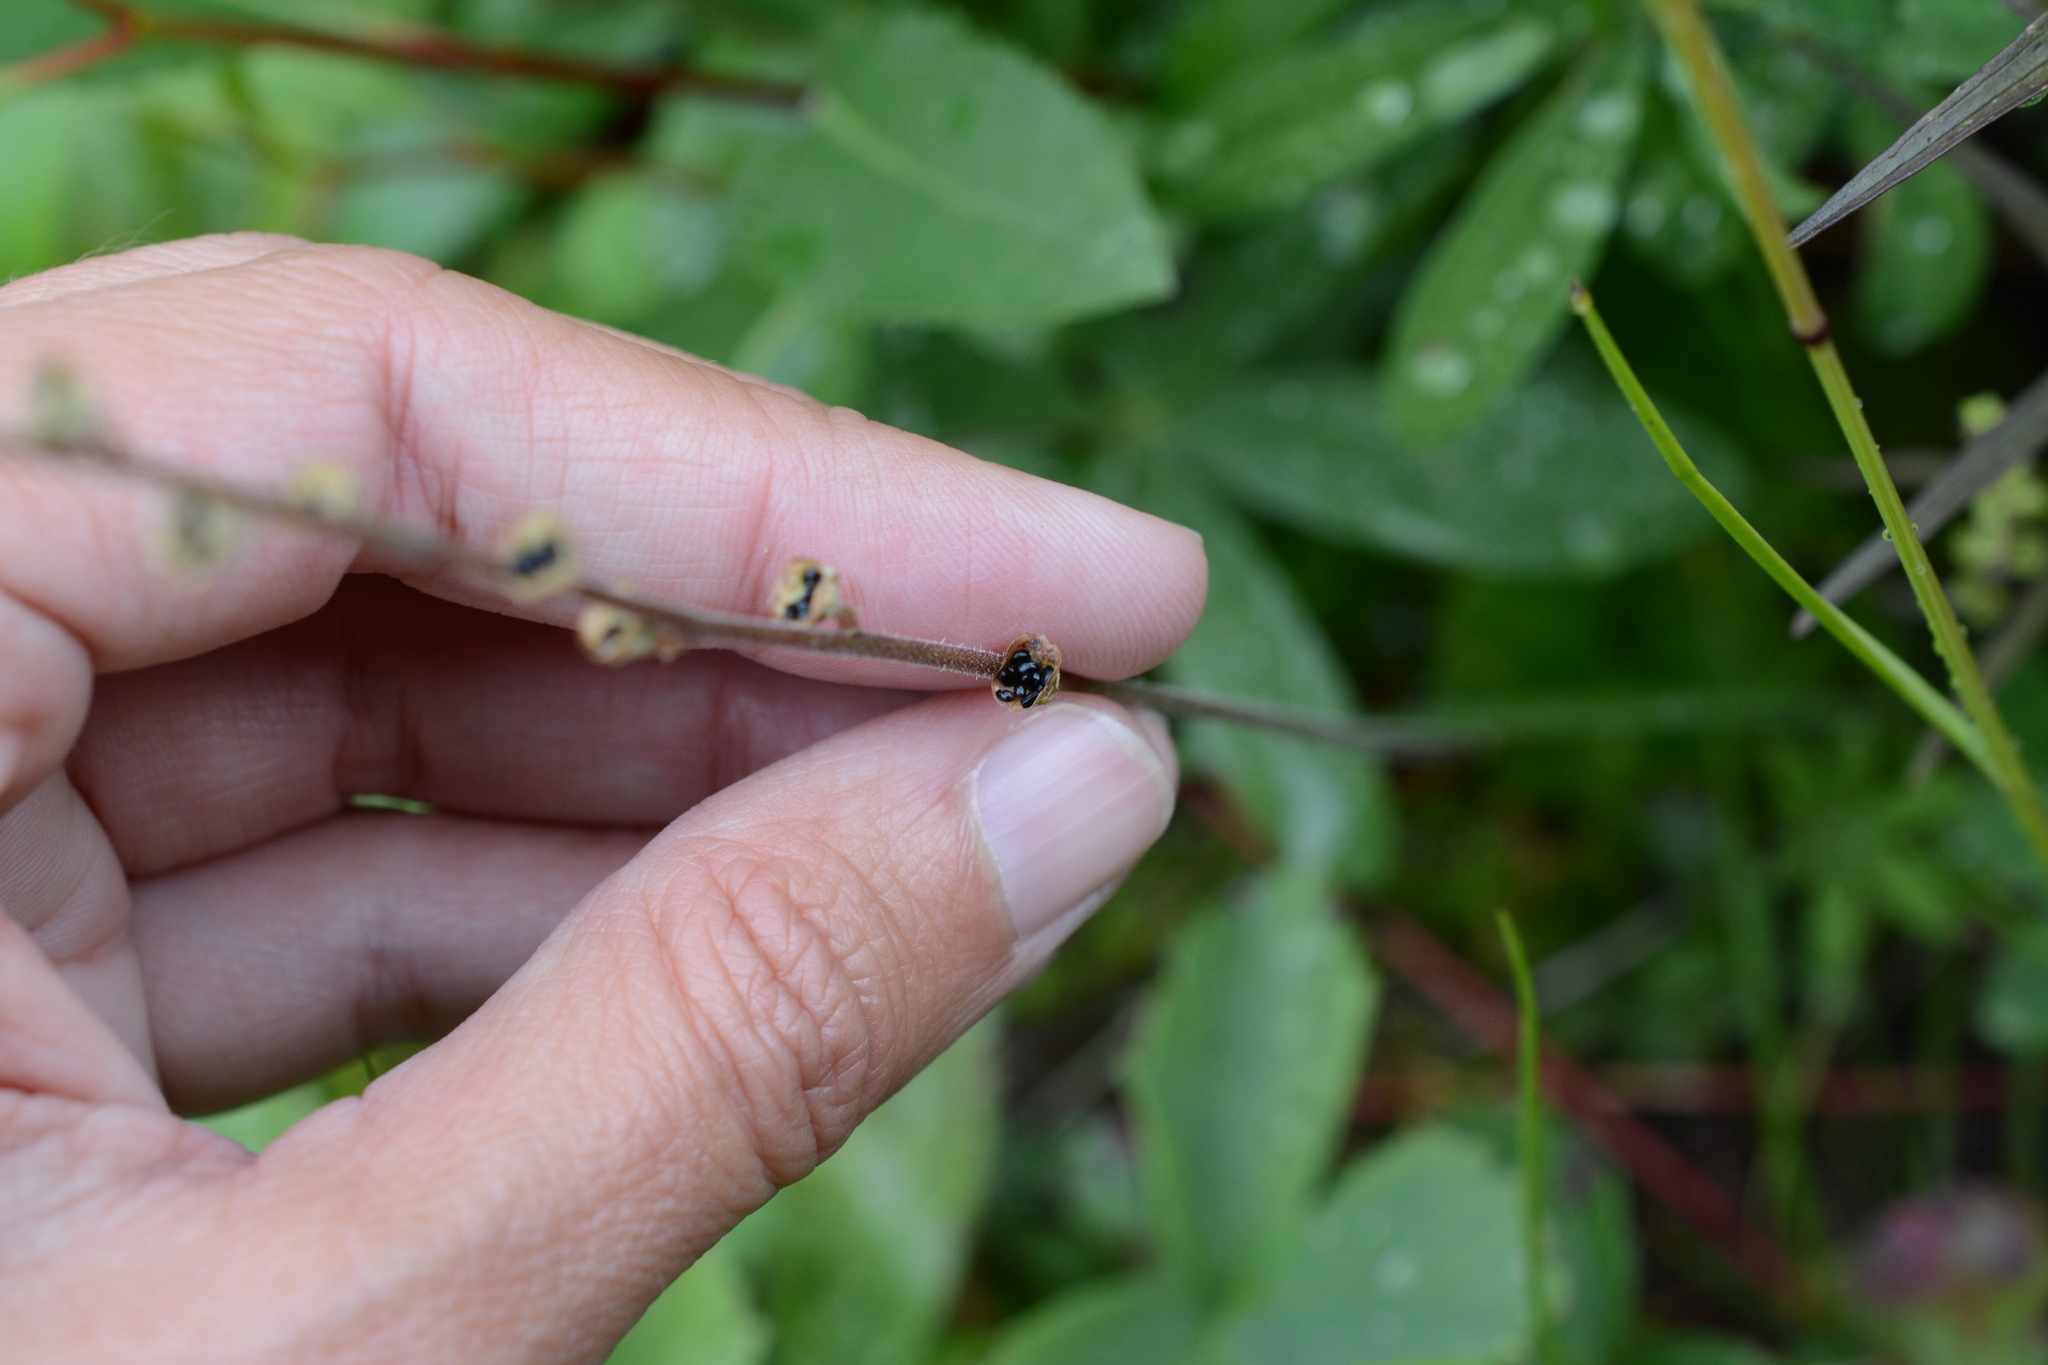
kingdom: Plantae
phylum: Tracheophyta
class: Magnoliopsida
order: Saxifragales
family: Saxifragaceae
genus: Pectiantia
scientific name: Pectiantia pentandra
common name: Alpine bishop's-cap
